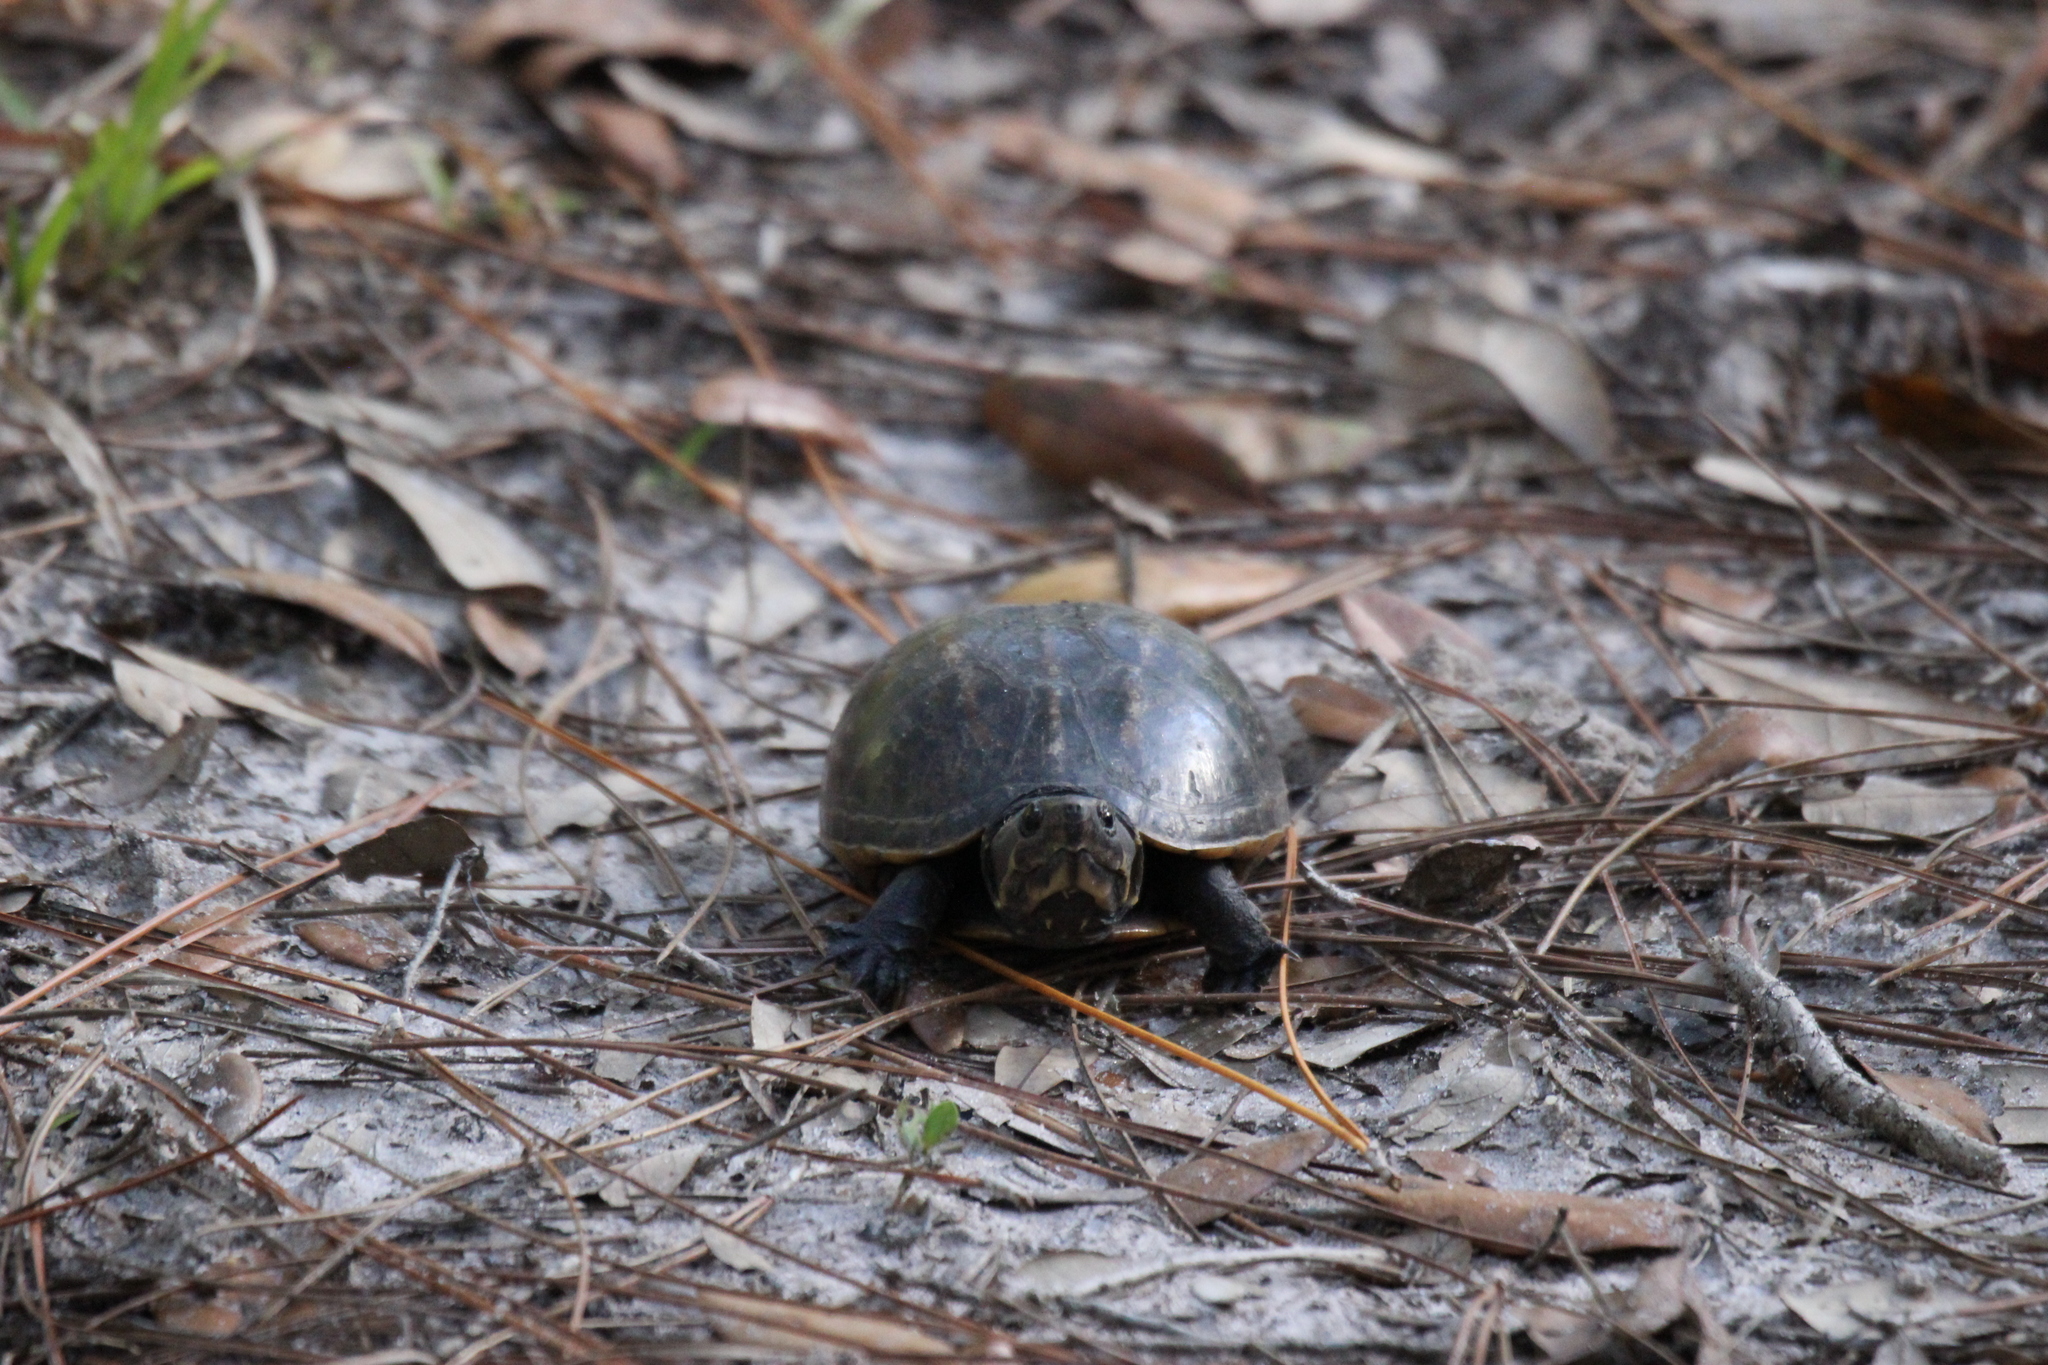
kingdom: Animalia
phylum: Chordata
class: Testudines
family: Kinosternidae
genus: Kinosternon
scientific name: Kinosternon baurii
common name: Striped mud turtle
